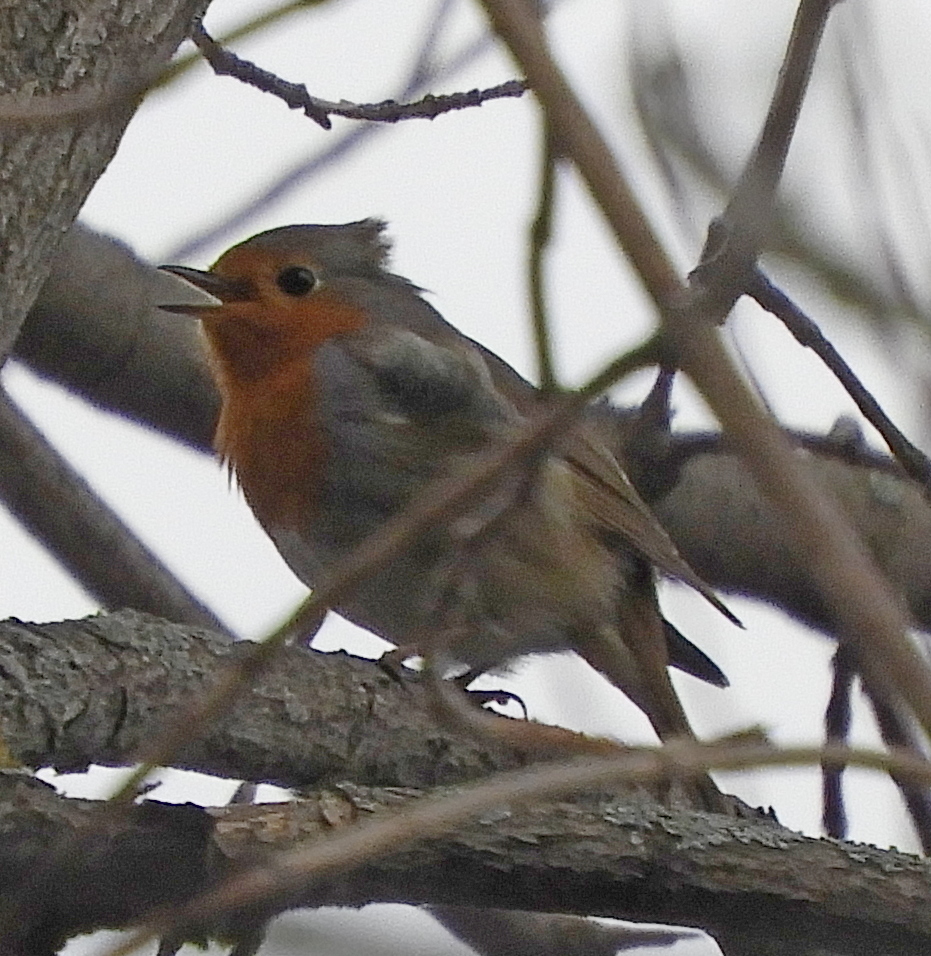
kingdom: Animalia
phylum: Chordata
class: Aves
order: Passeriformes
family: Muscicapidae
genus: Erithacus
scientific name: Erithacus rubecula
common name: European robin
